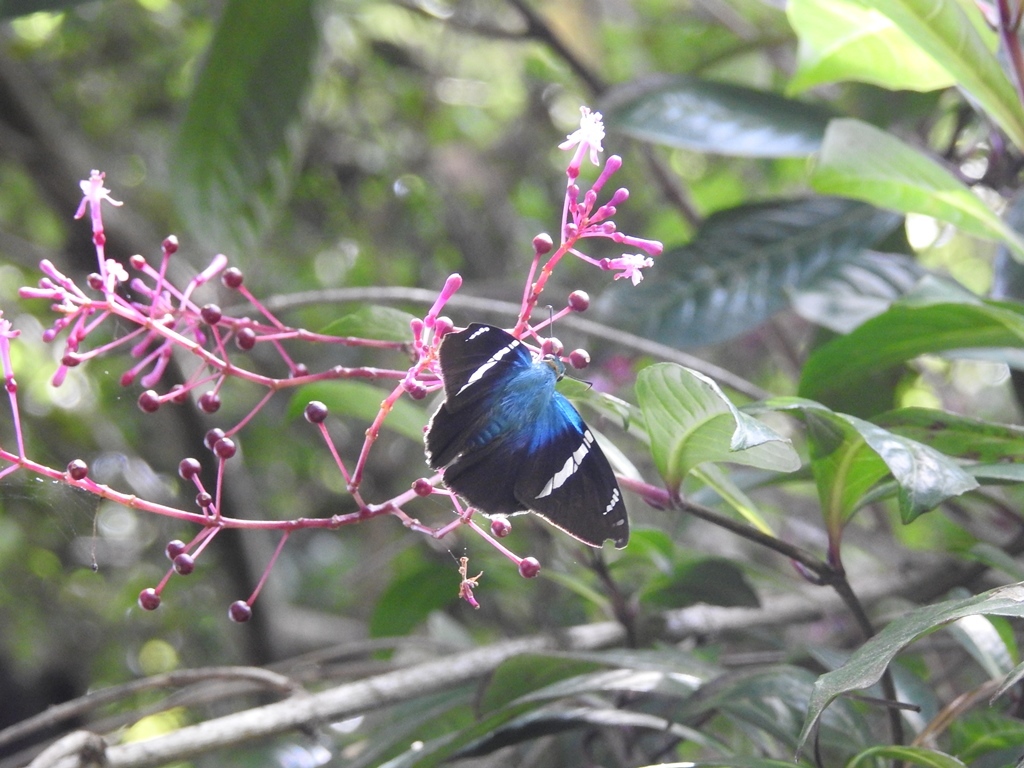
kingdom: Animalia
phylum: Arthropoda
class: Insecta
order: Lepidoptera
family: Hesperiidae
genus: Astraptes
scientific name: Astraptes fulgerator
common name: Two-barred flasher
